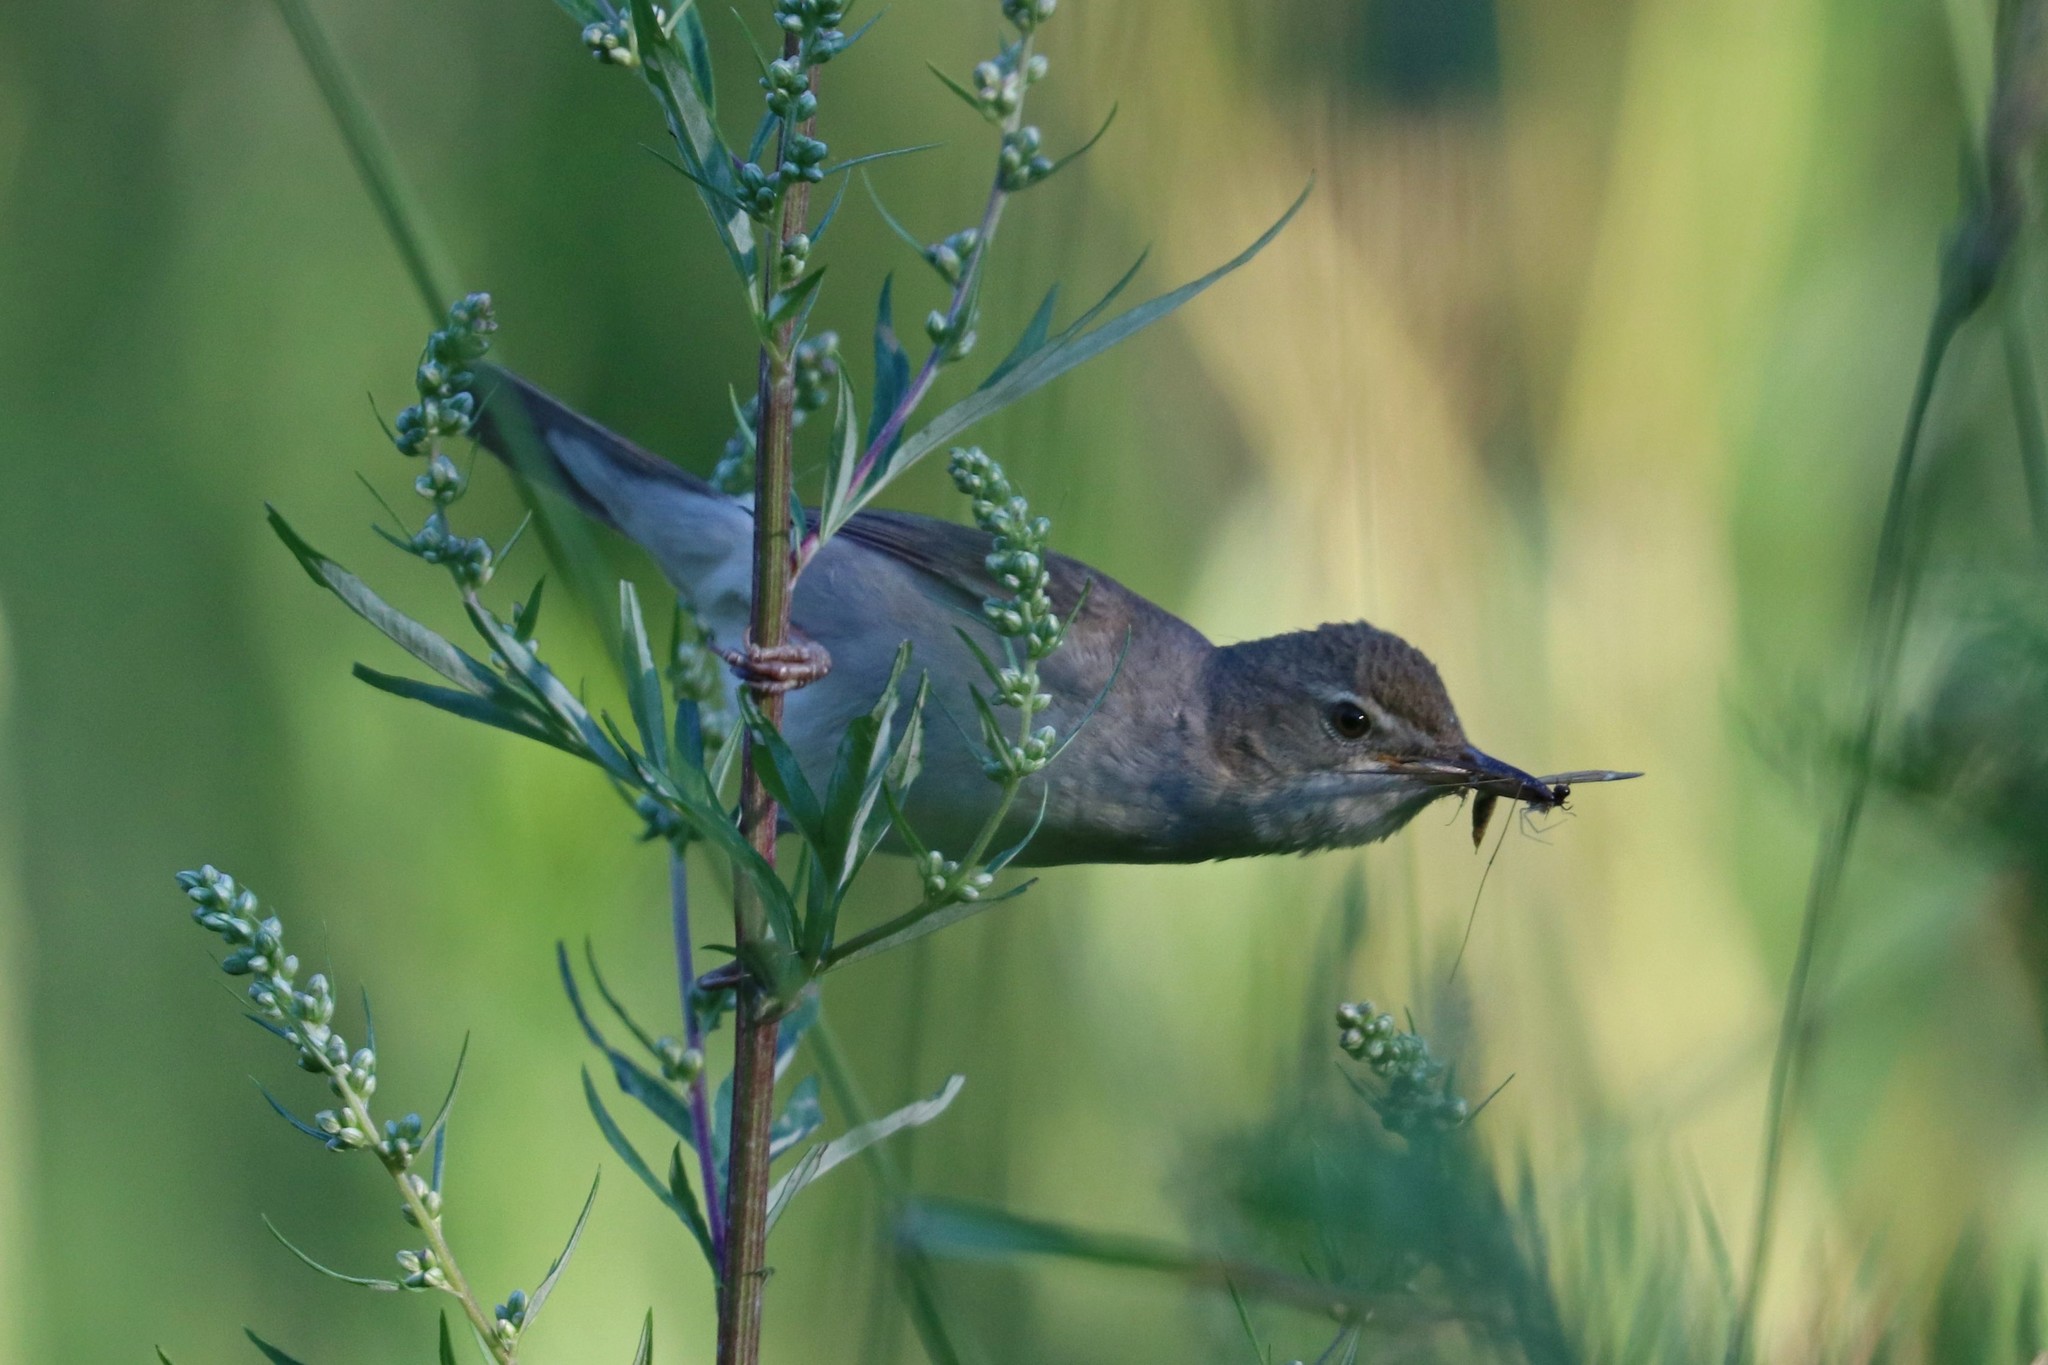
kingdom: Animalia
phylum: Chordata
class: Aves
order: Passeriformes
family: Acrocephalidae
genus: Iduna
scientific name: Iduna caligata
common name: Booted warbler
